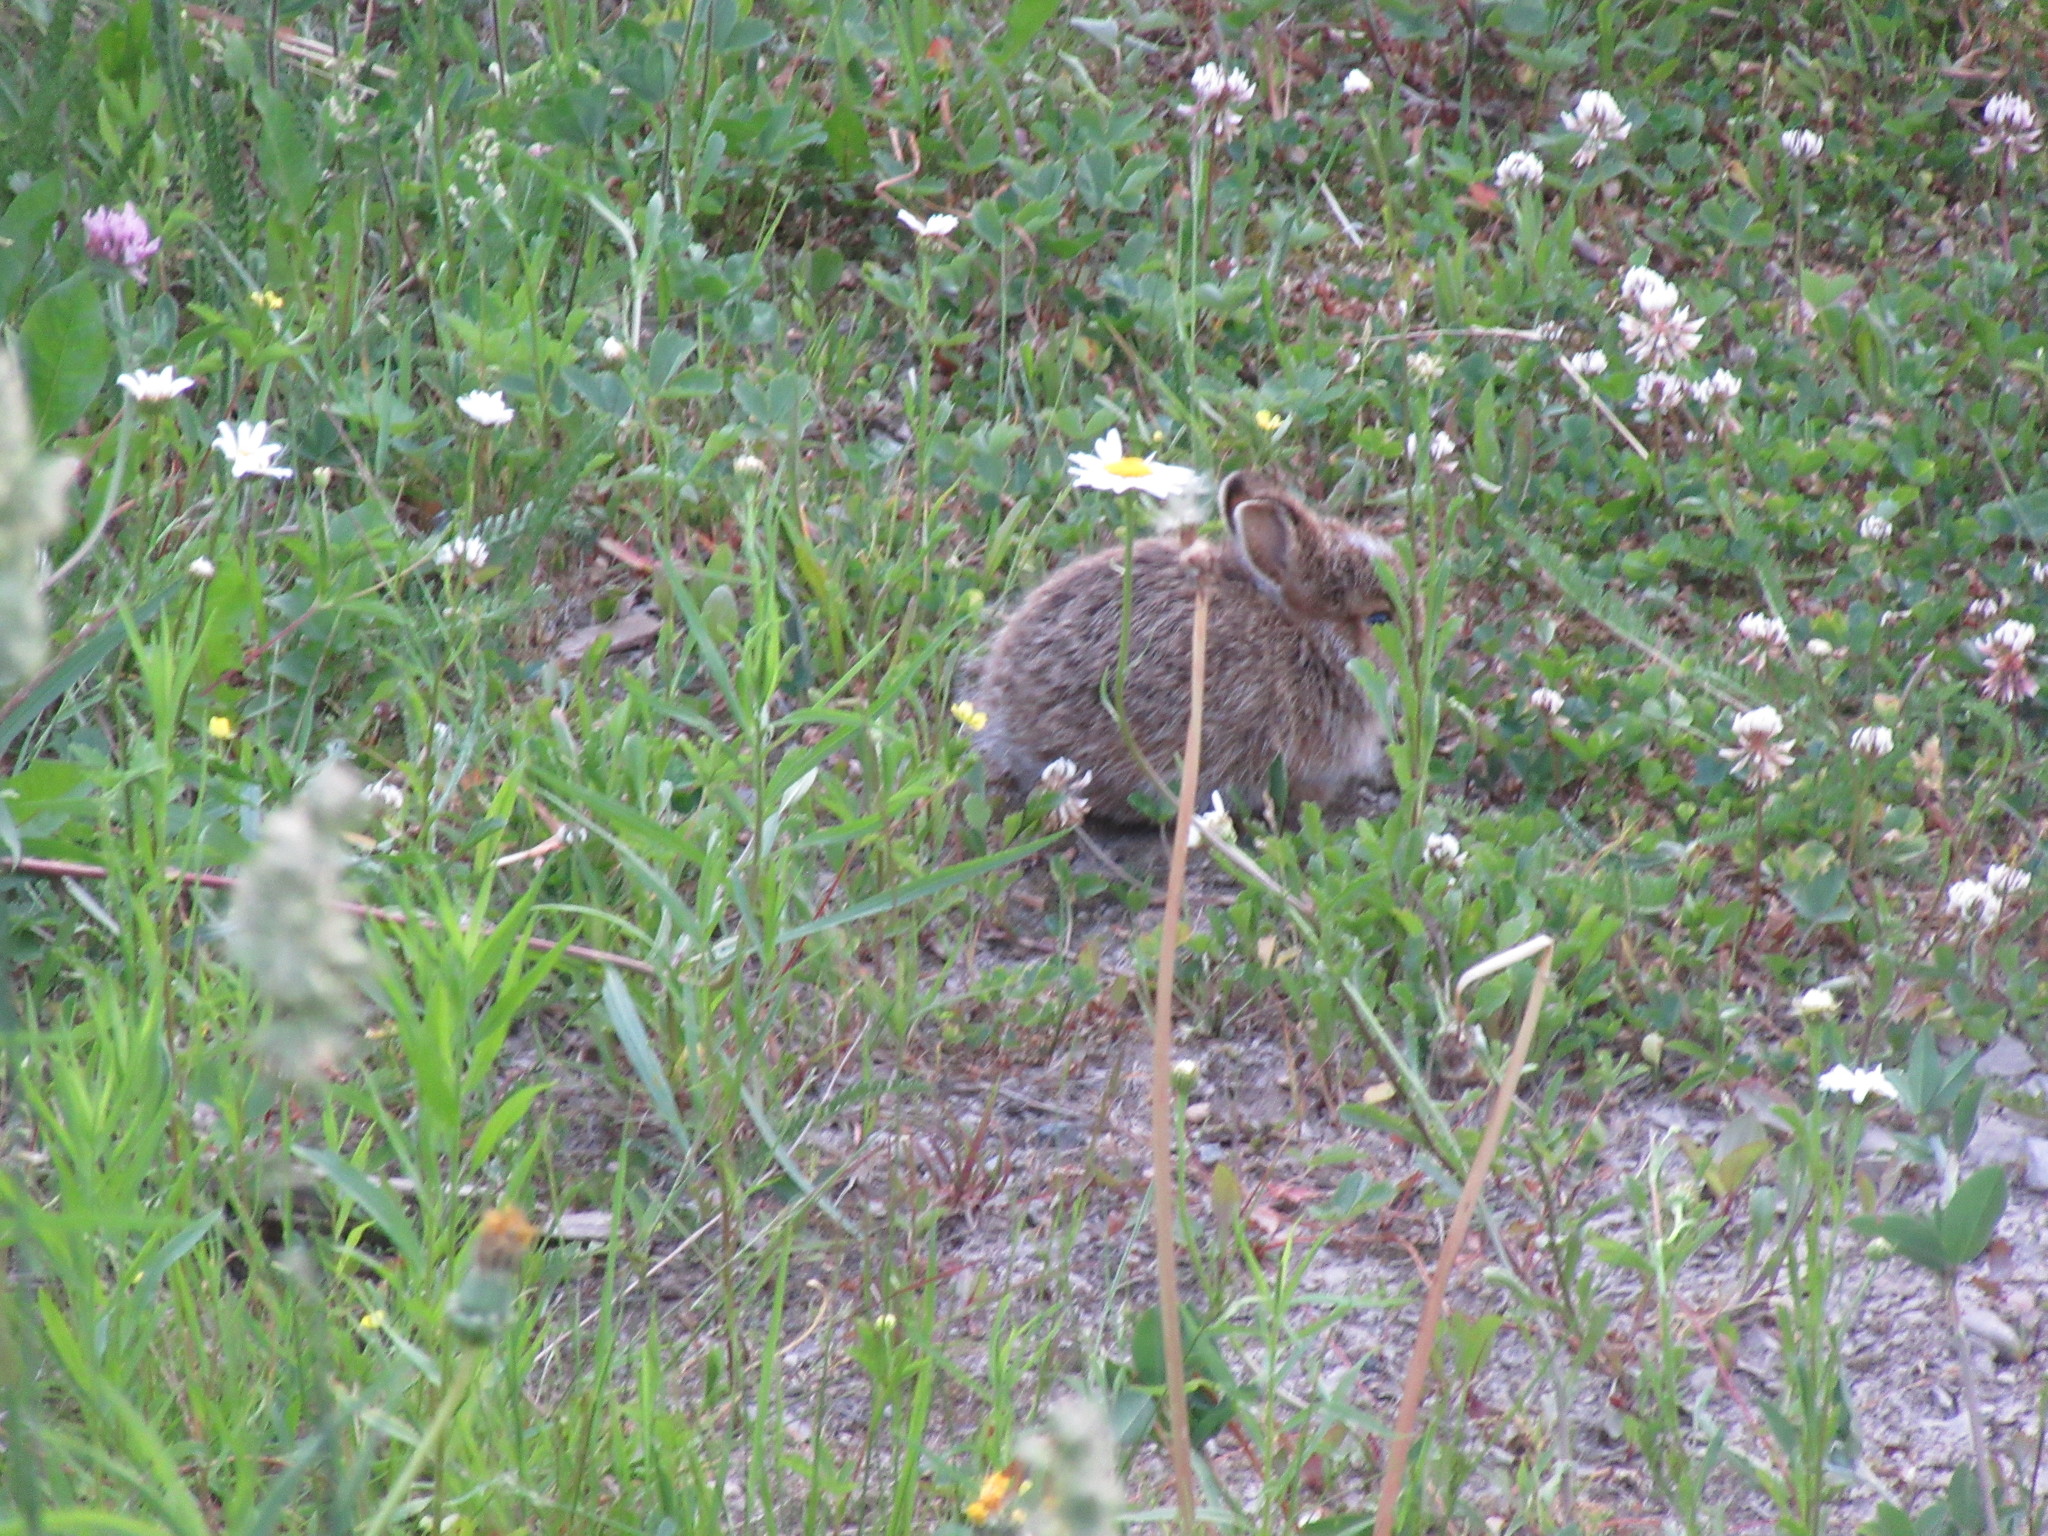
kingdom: Animalia
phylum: Chordata
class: Mammalia
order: Lagomorpha
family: Leporidae
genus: Lepus
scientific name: Lepus americanus
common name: Snowshoe hare
